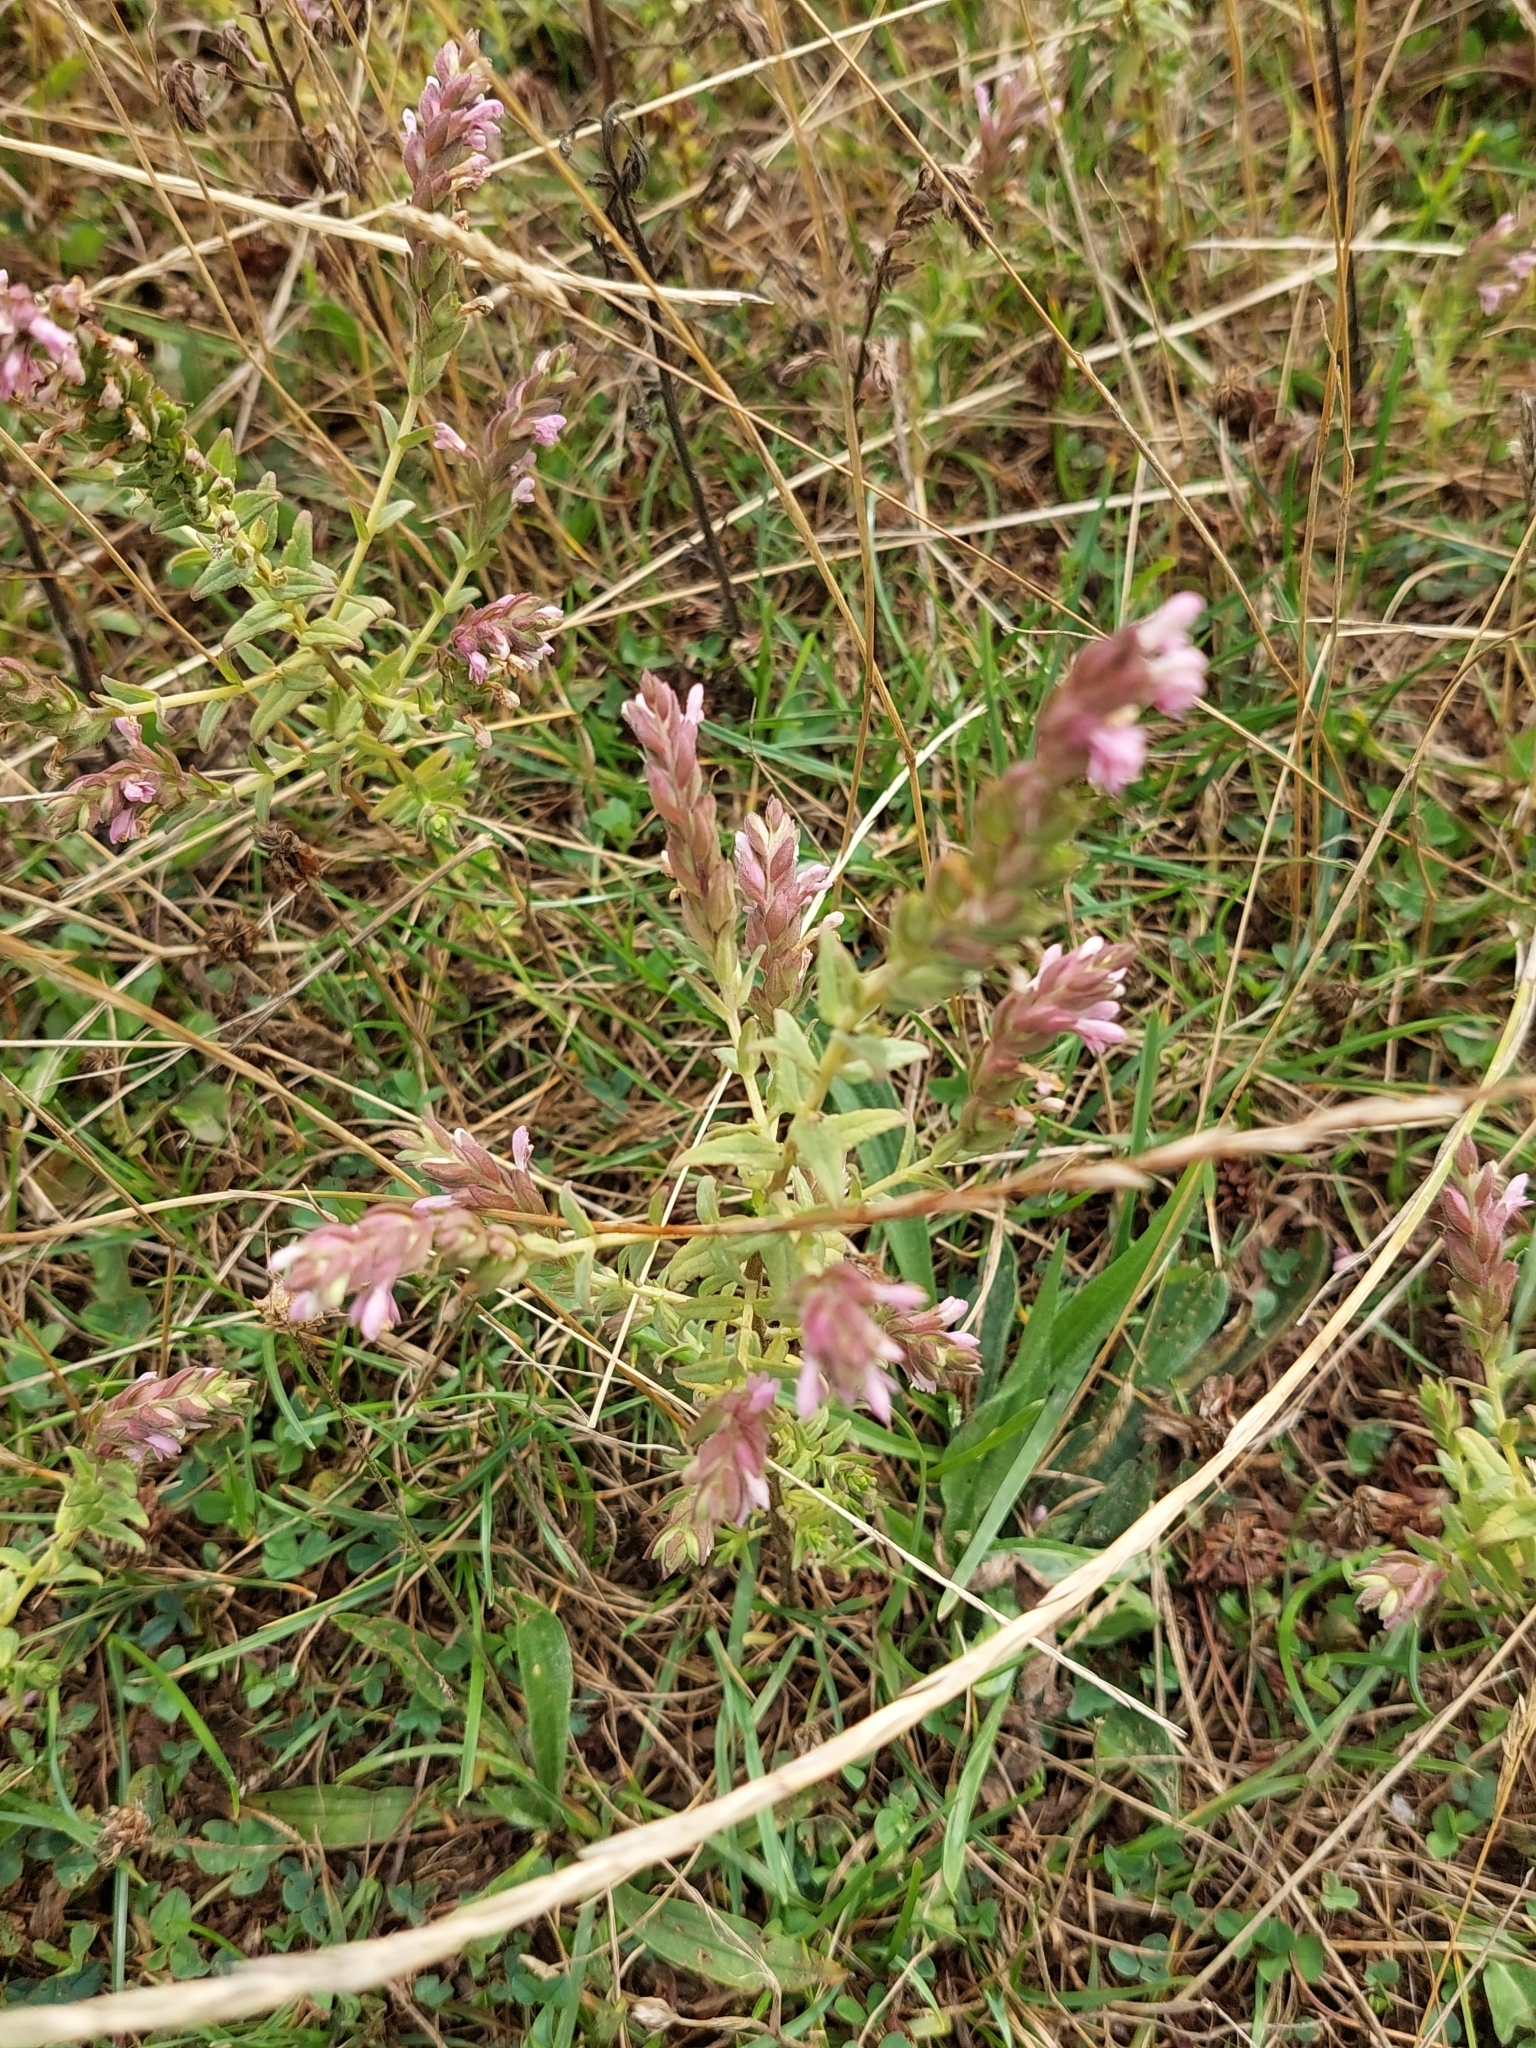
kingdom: Plantae
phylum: Tracheophyta
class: Magnoliopsida
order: Lamiales
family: Orobanchaceae
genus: Odontites
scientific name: Odontites vernus
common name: Red bartsia
